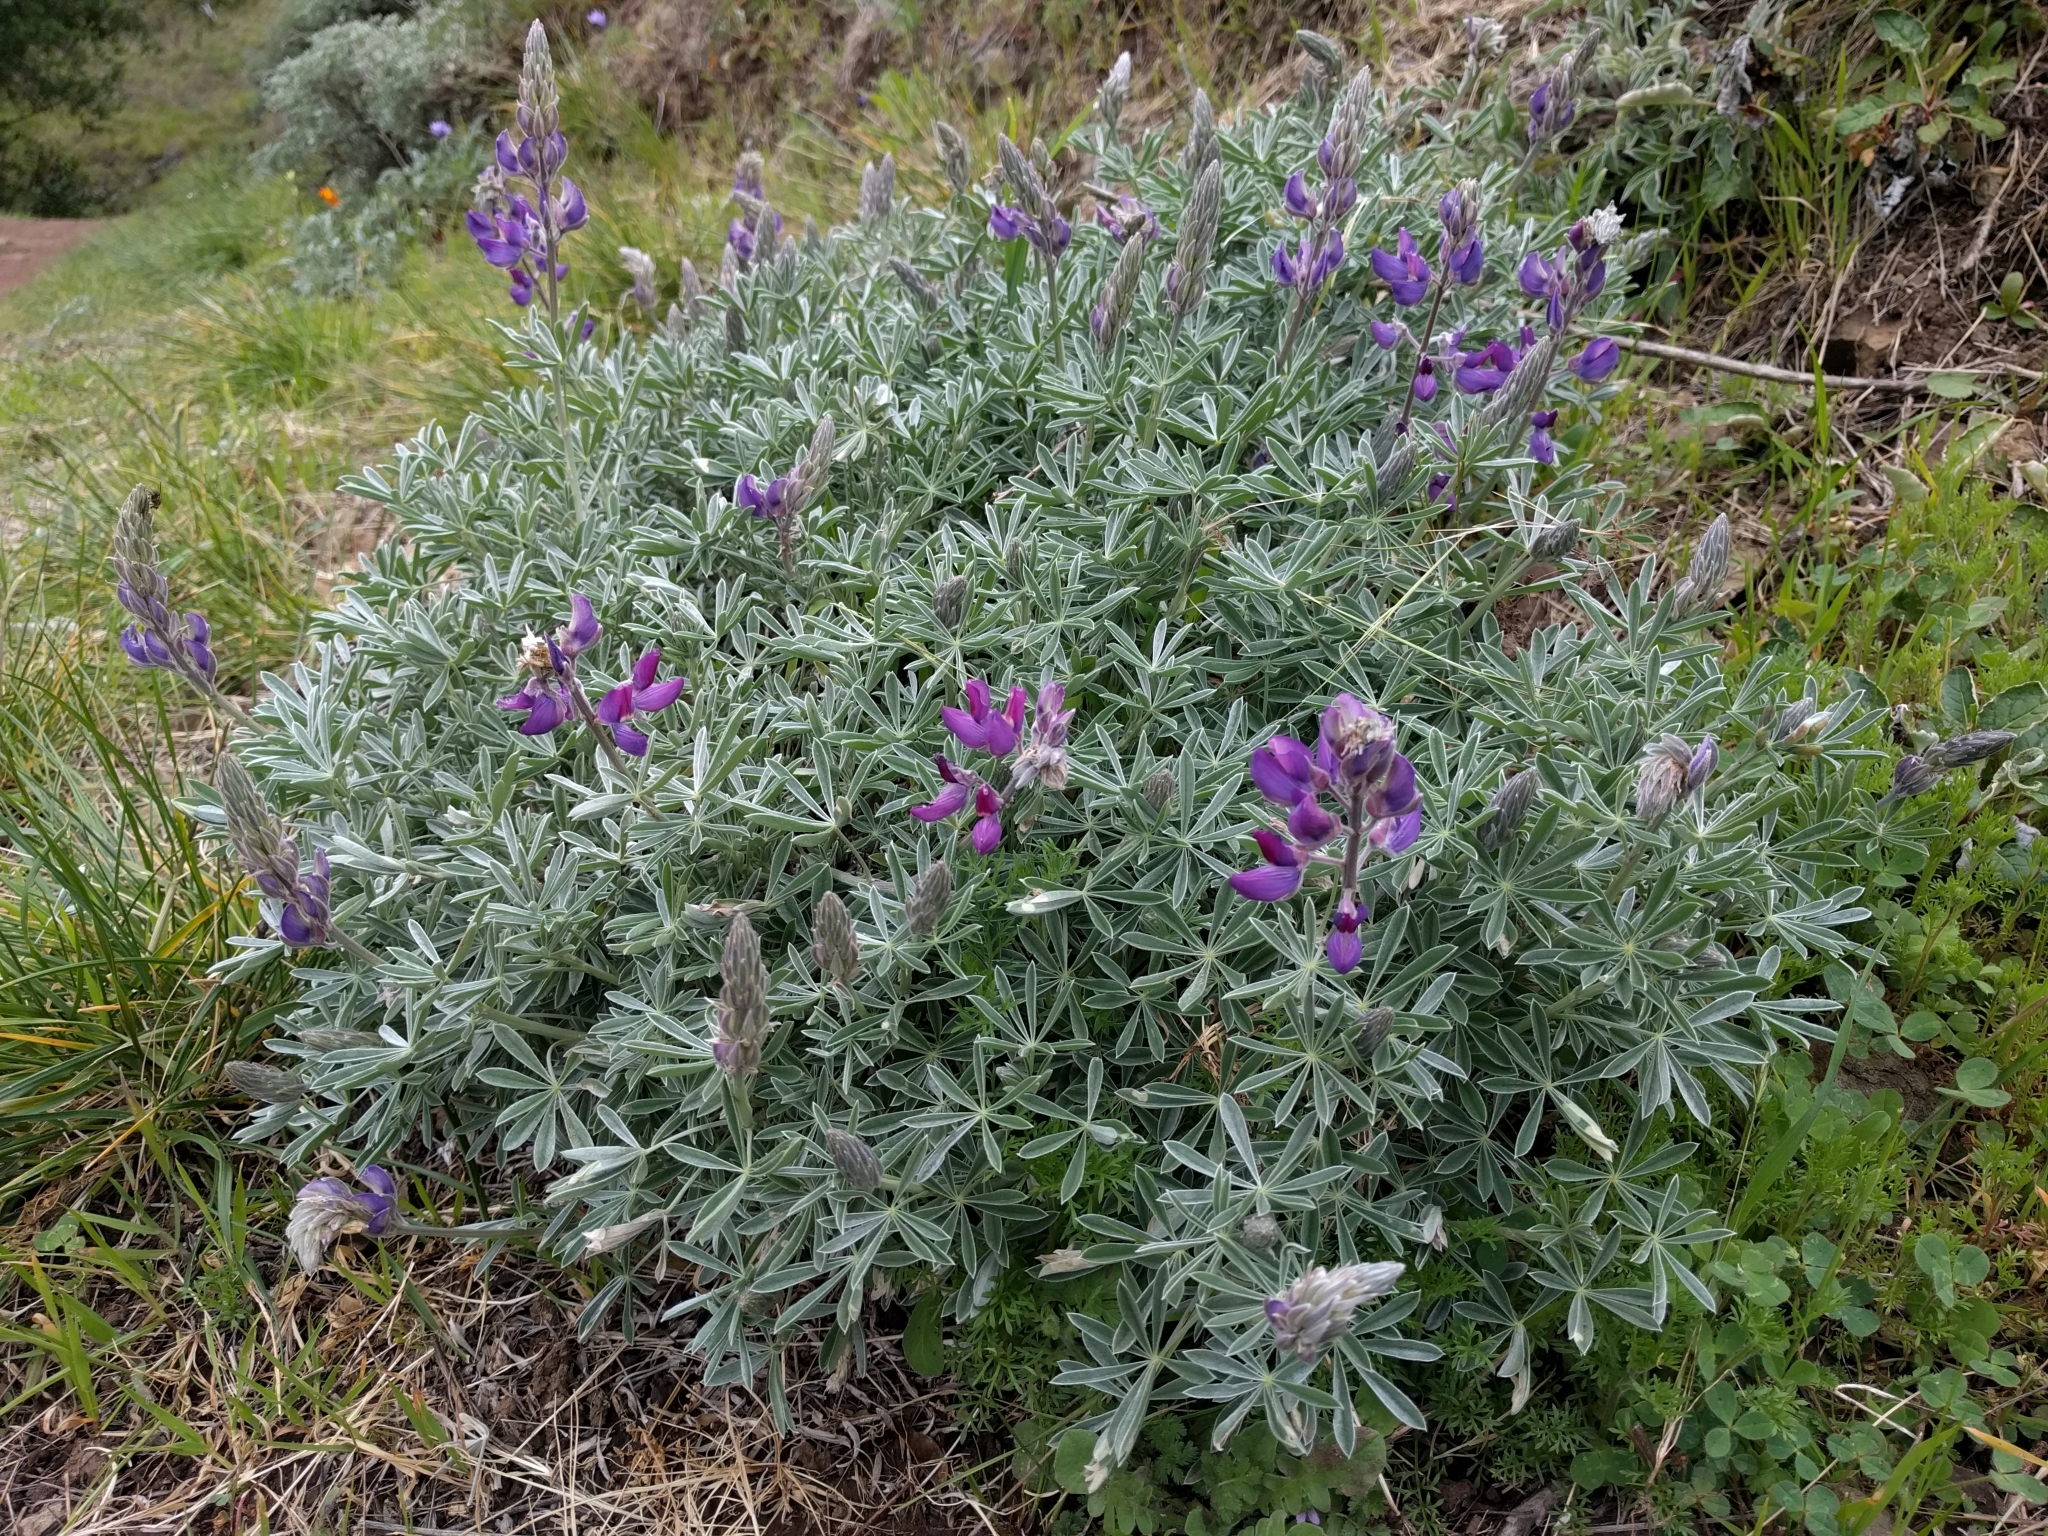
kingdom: Plantae
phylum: Tracheophyta
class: Magnoliopsida
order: Fabales
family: Fabaceae
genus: Lupinus
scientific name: Lupinus albifrons
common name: Foothill lupine
